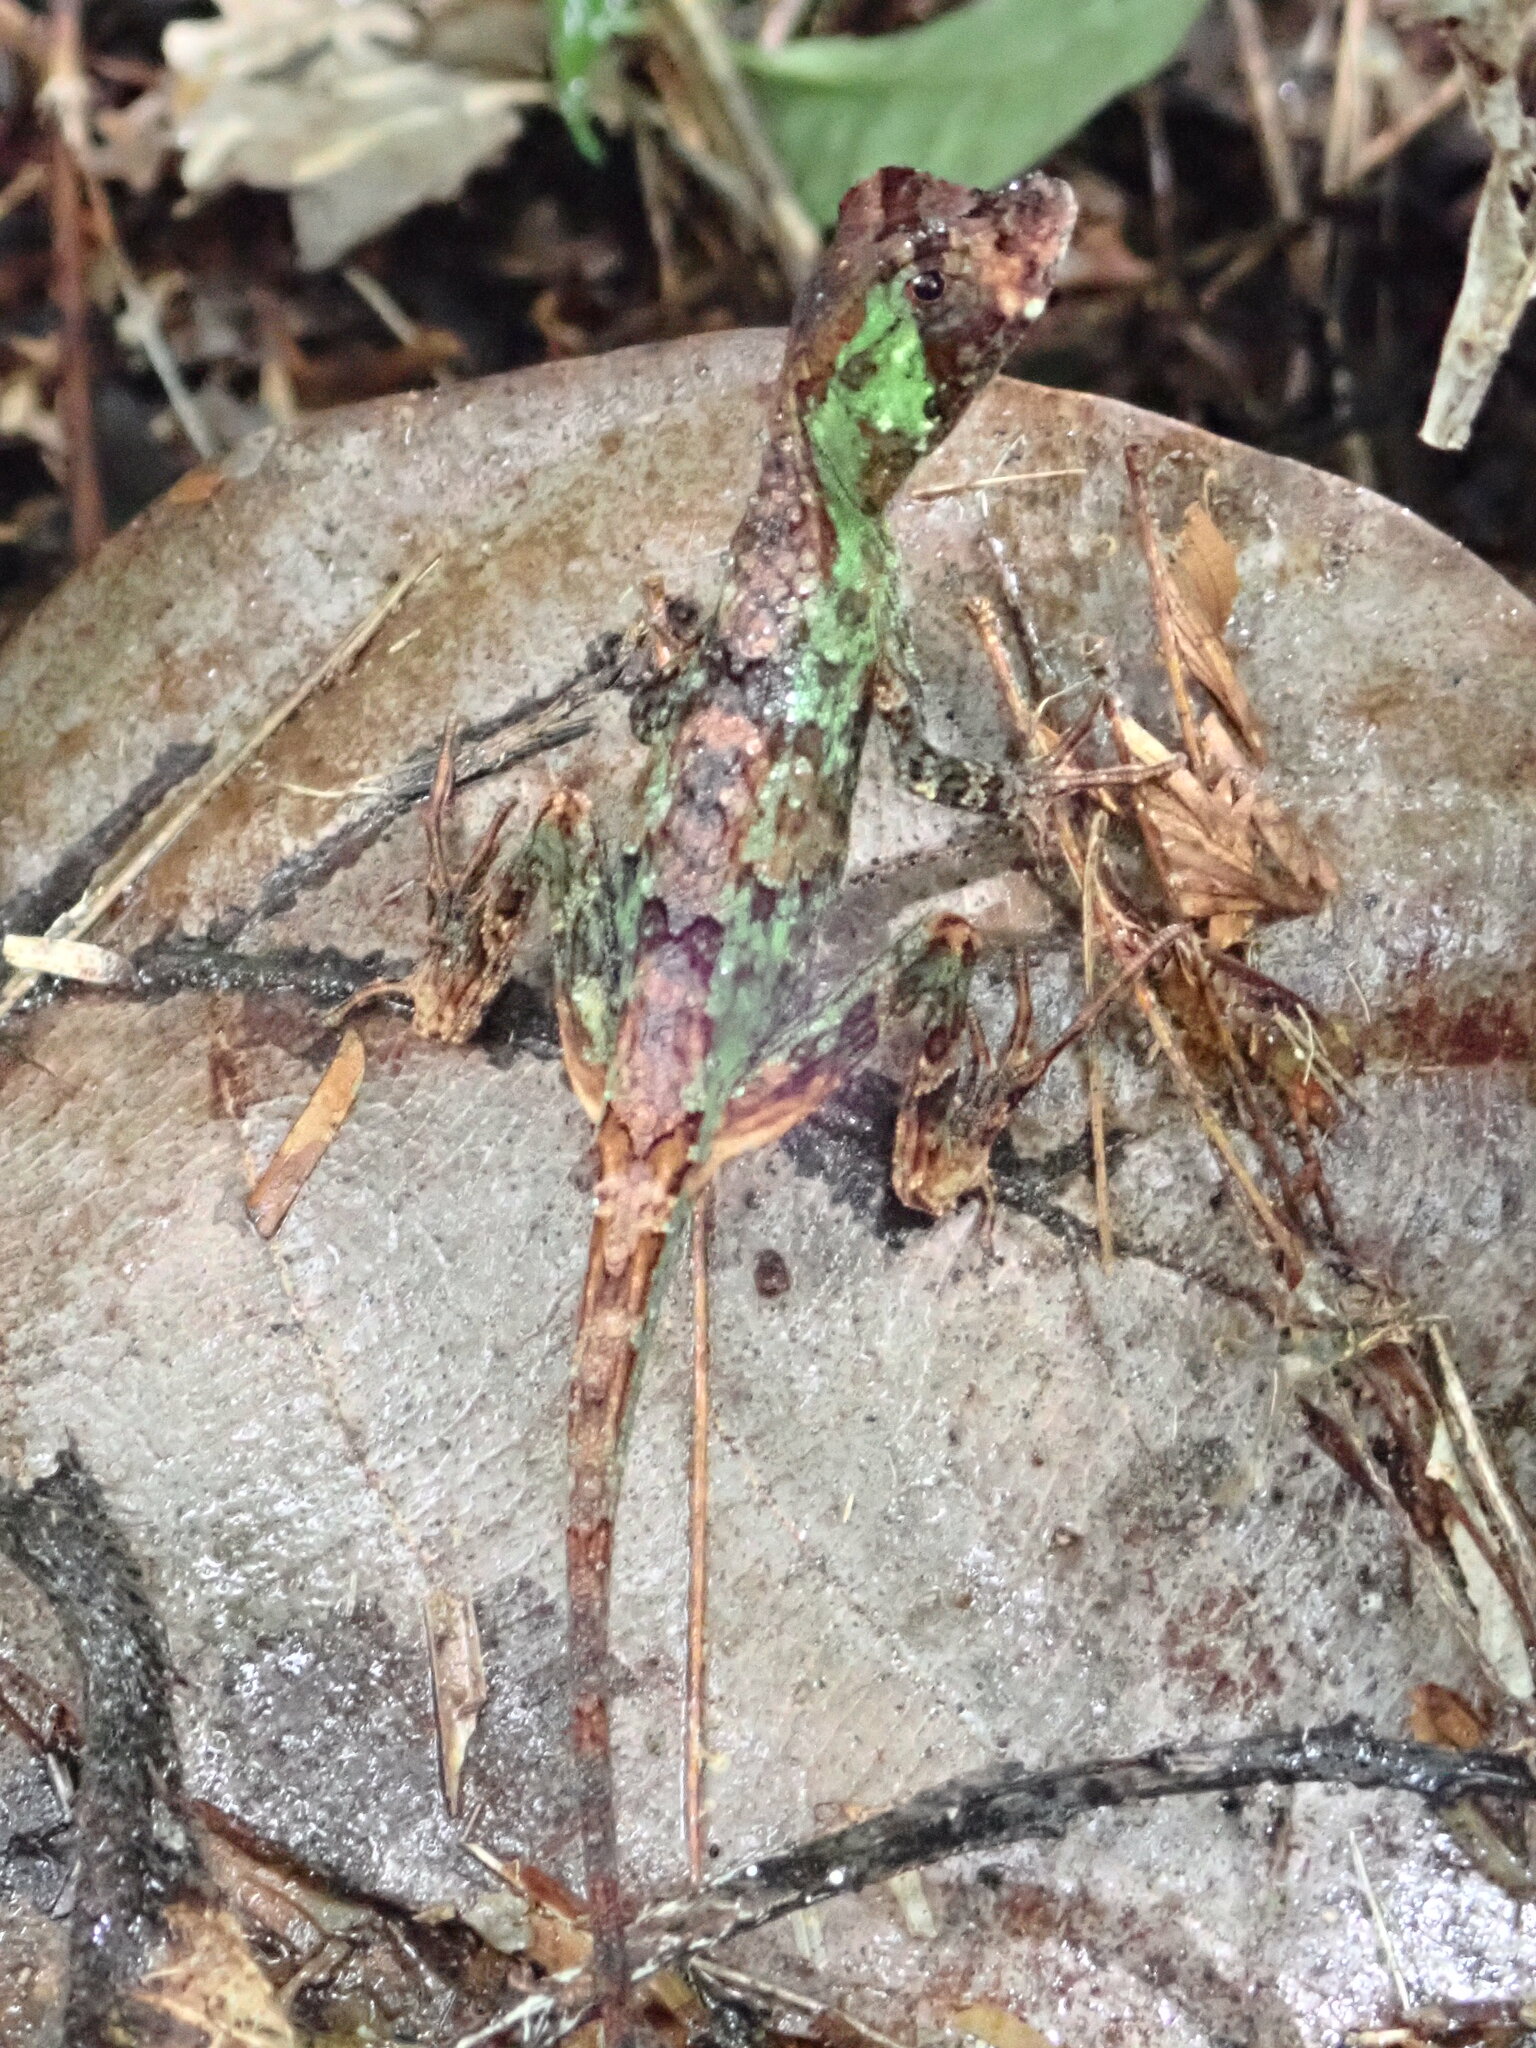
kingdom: Animalia
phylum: Chordata
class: Squamata
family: Dactyloidae
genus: Anolis
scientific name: Anolis capito
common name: Bighead anole
